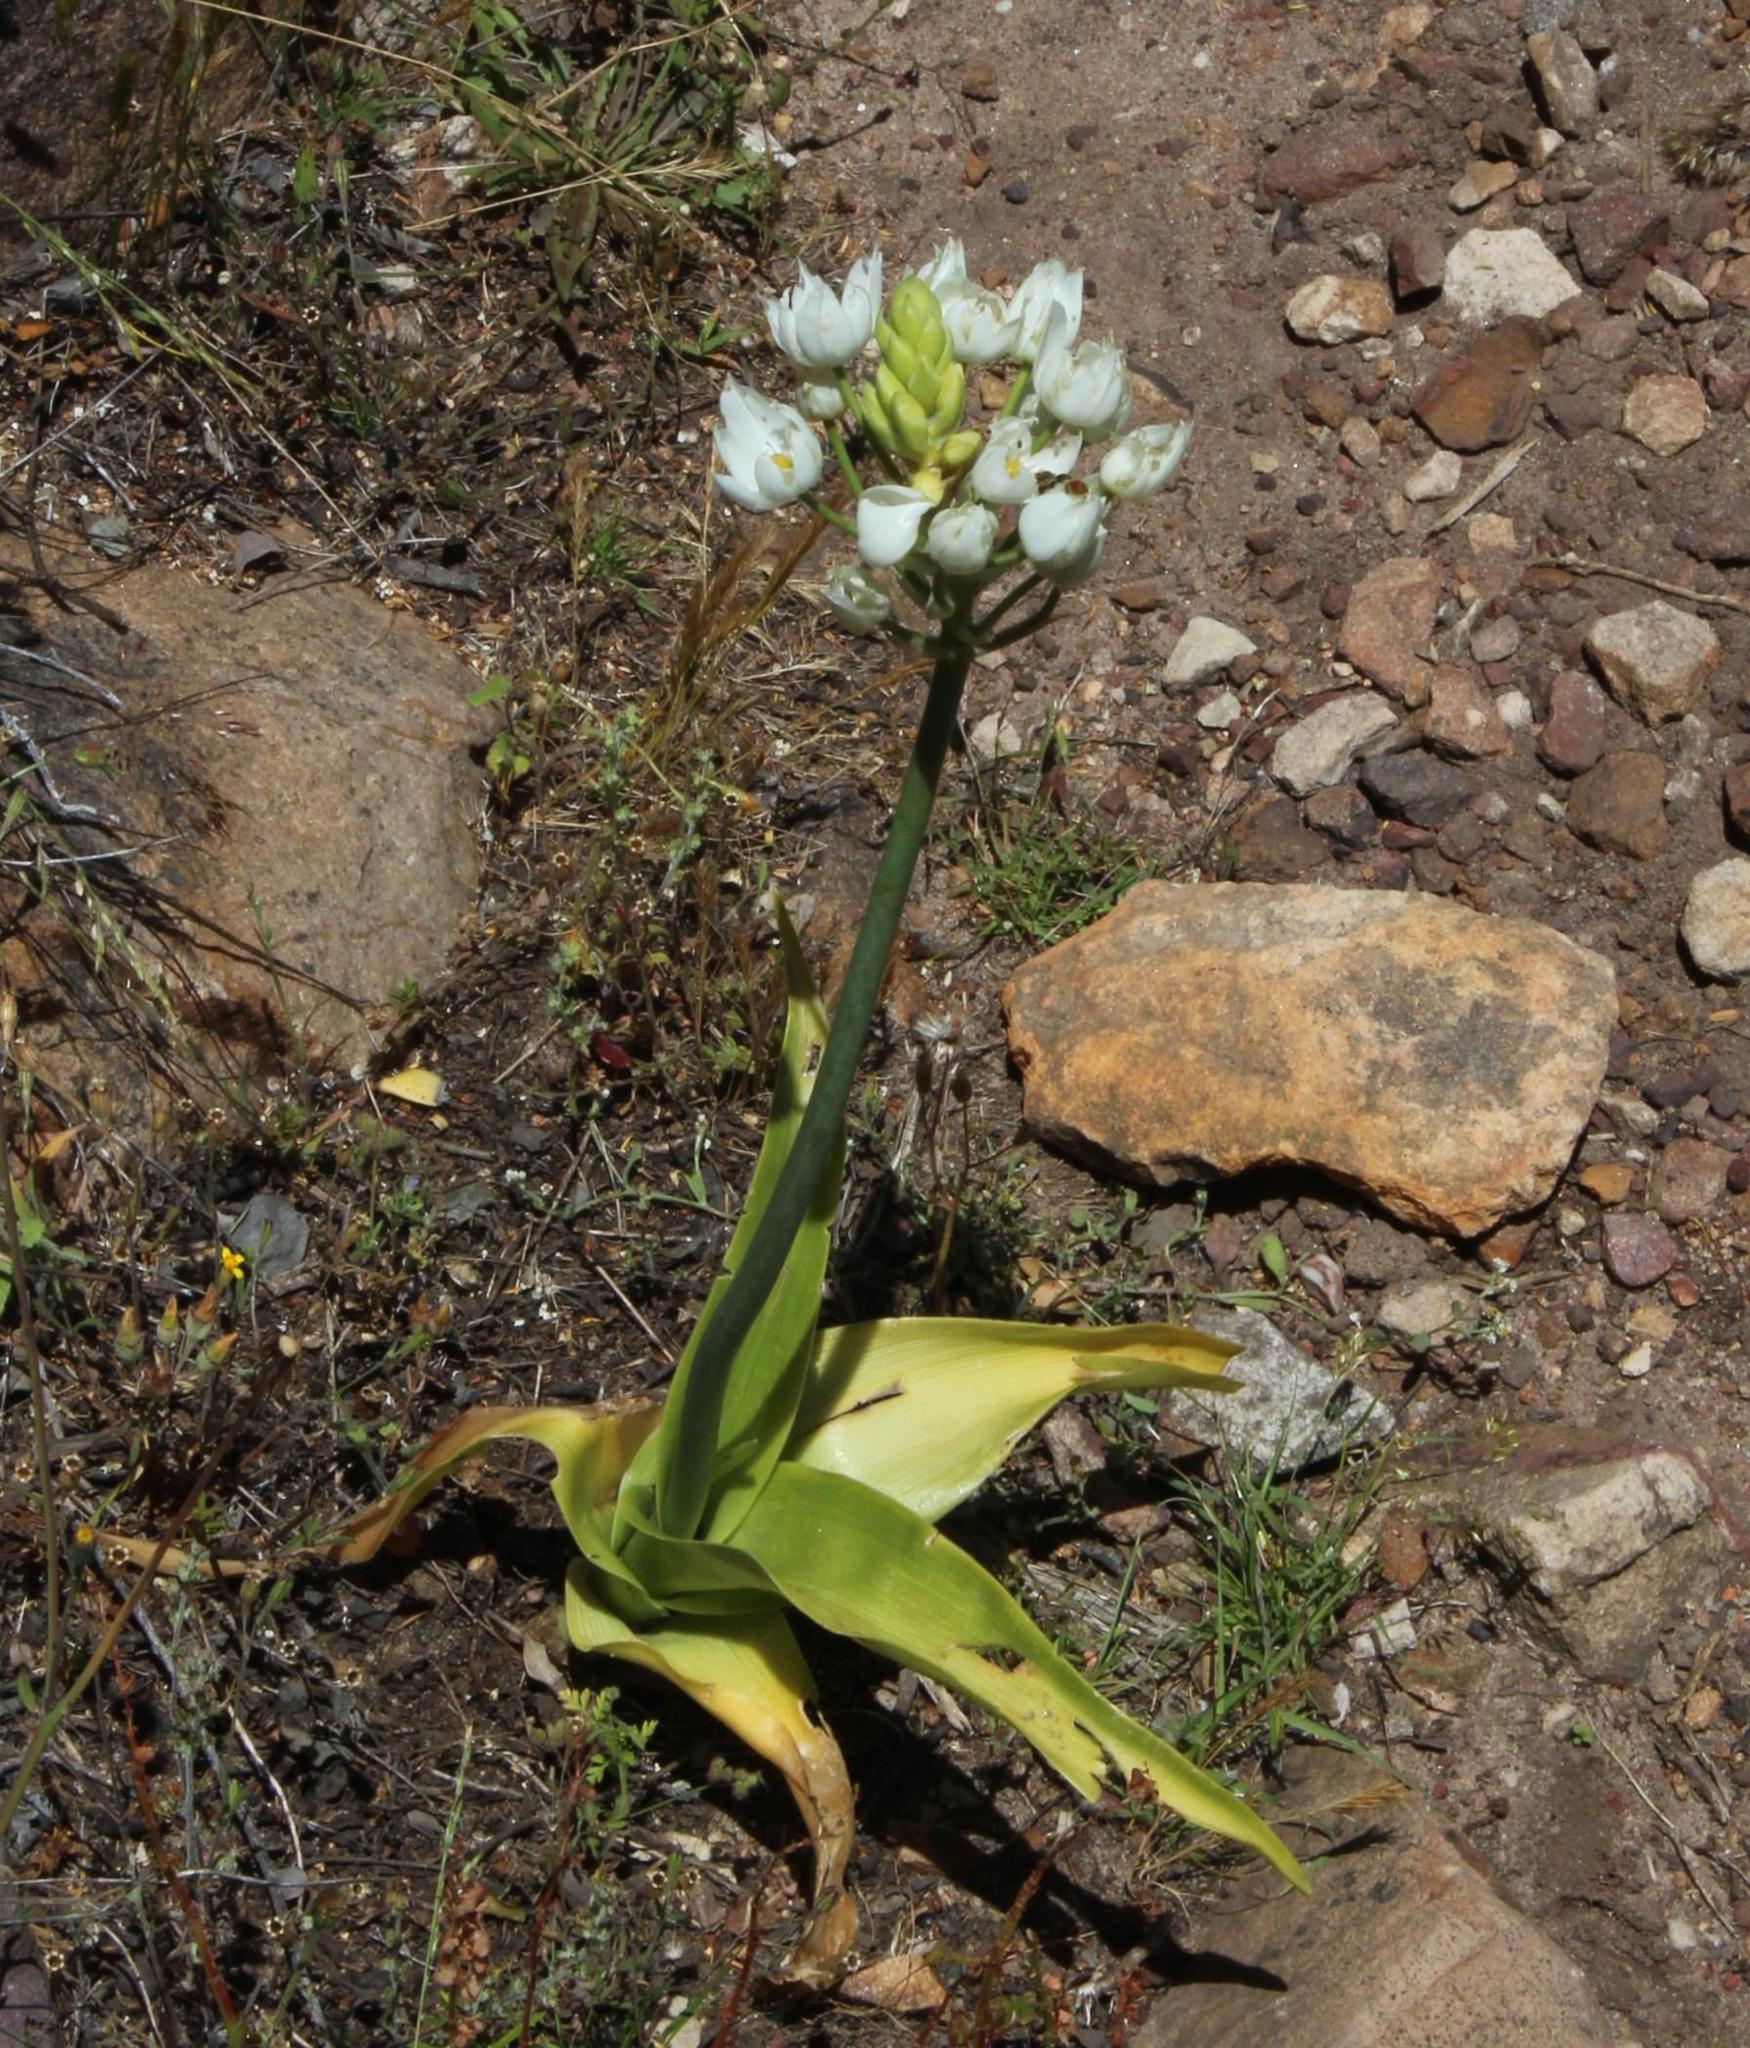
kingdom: Plantae
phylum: Tracheophyta
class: Liliopsida
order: Asparagales
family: Asparagaceae
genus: Ornithogalum
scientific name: Ornithogalum thyrsoides
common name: Chincherinchee
